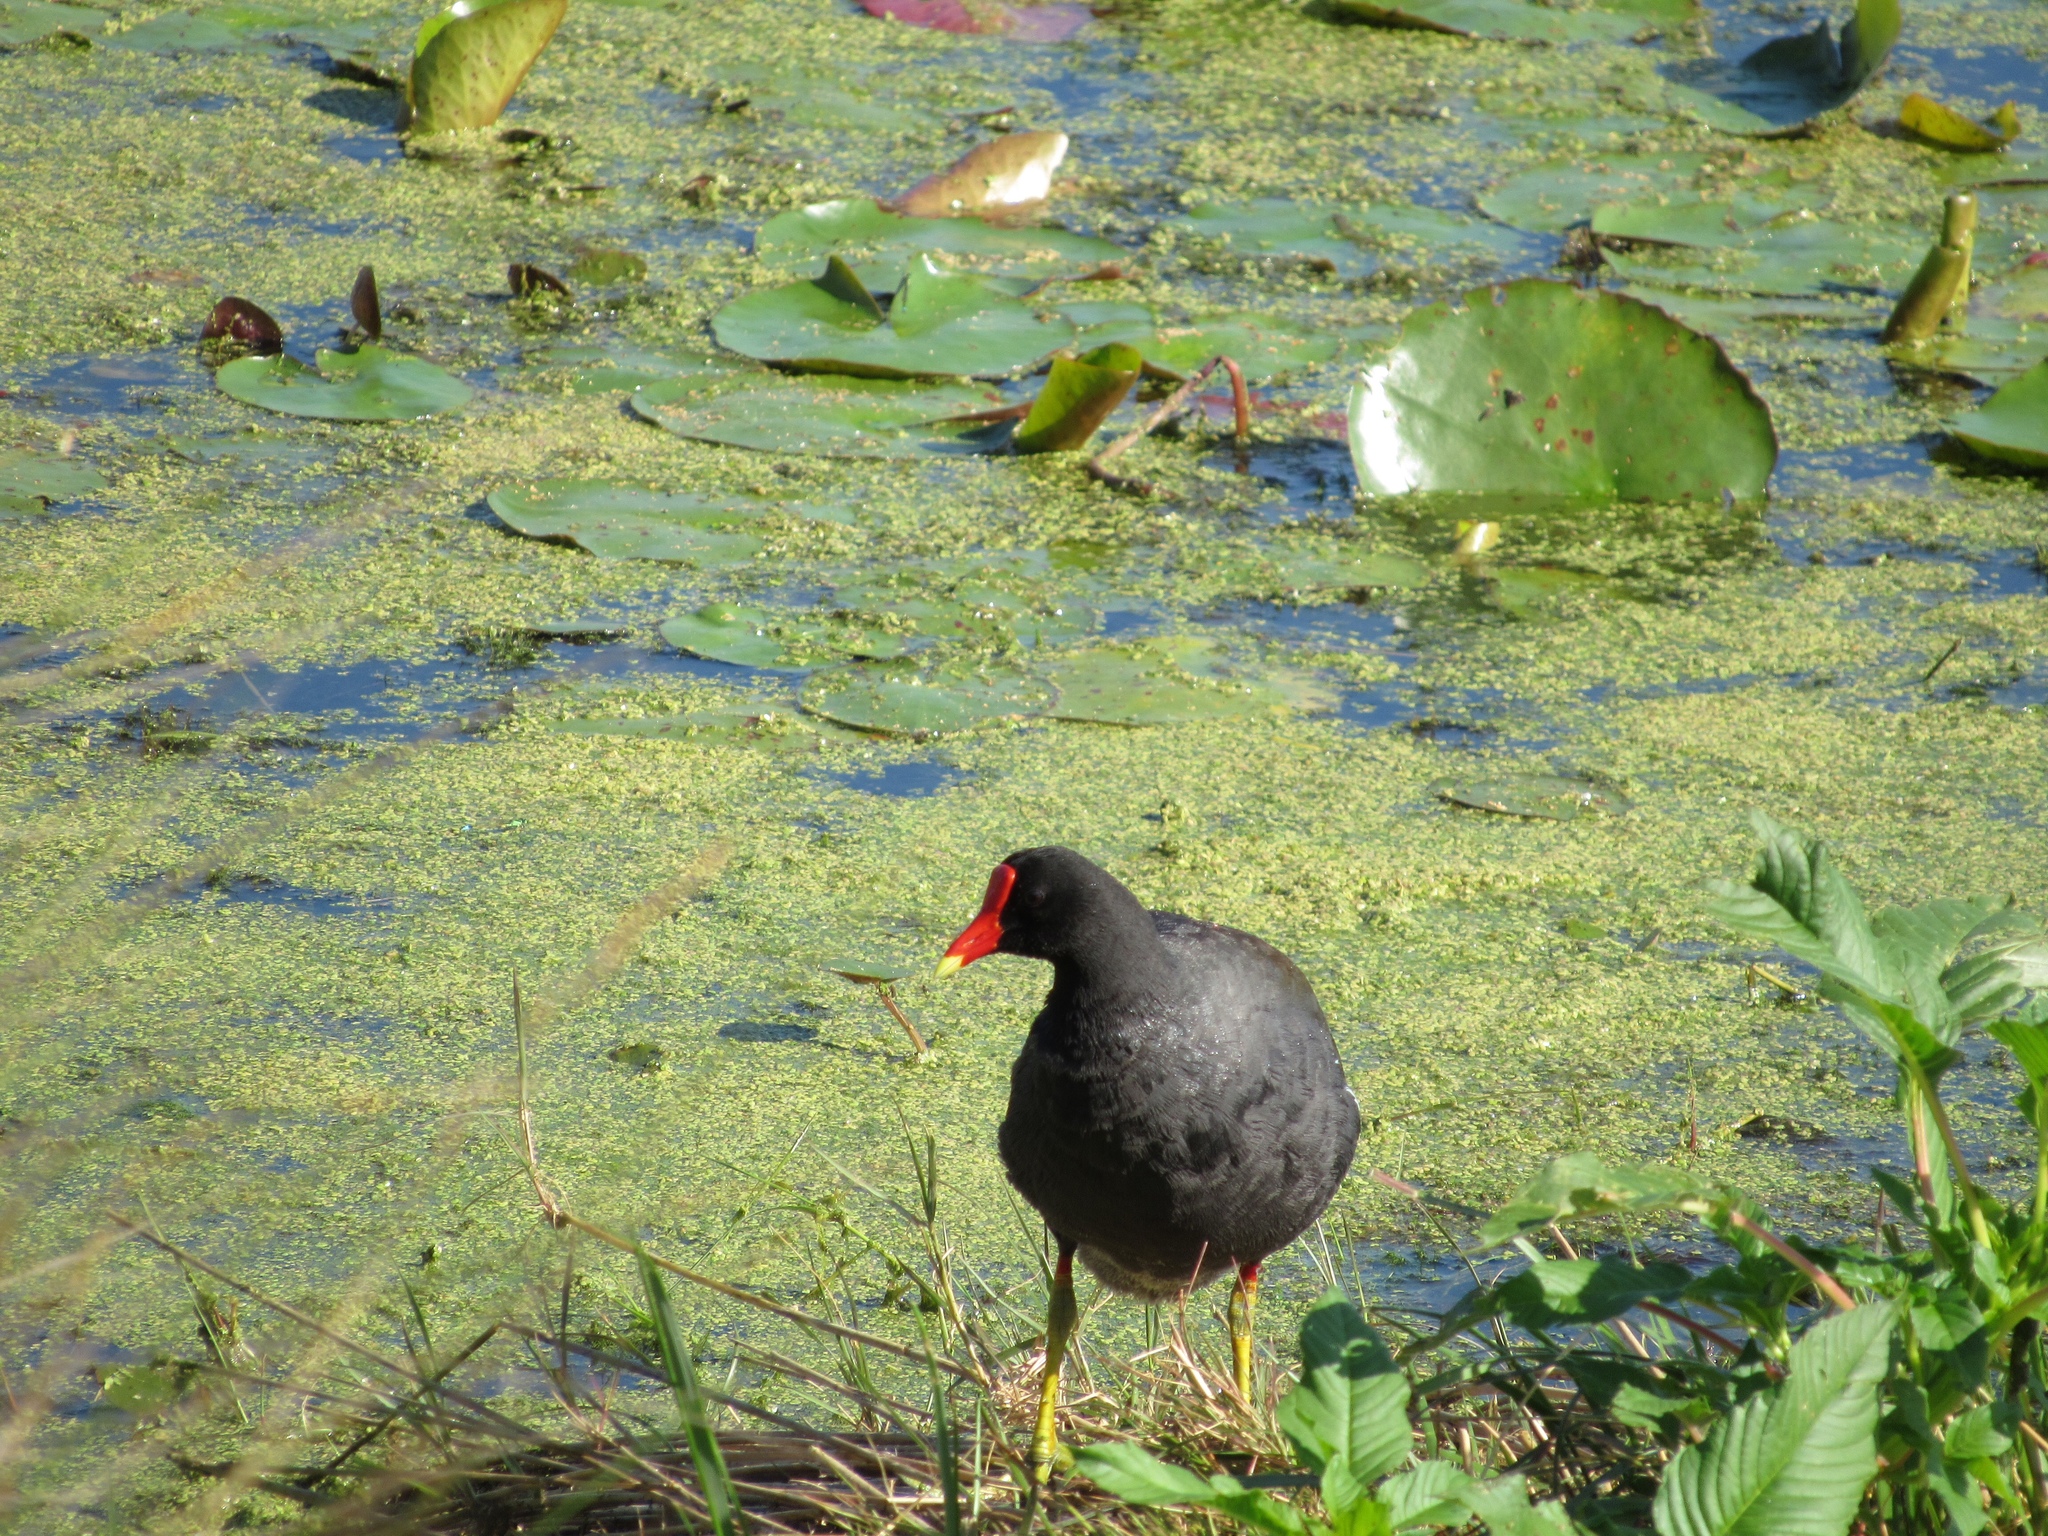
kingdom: Animalia
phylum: Chordata
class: Aves
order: Gruiformes
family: Rallidae
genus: Gallinula
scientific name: Gallinula chloropus
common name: Common moorhen
